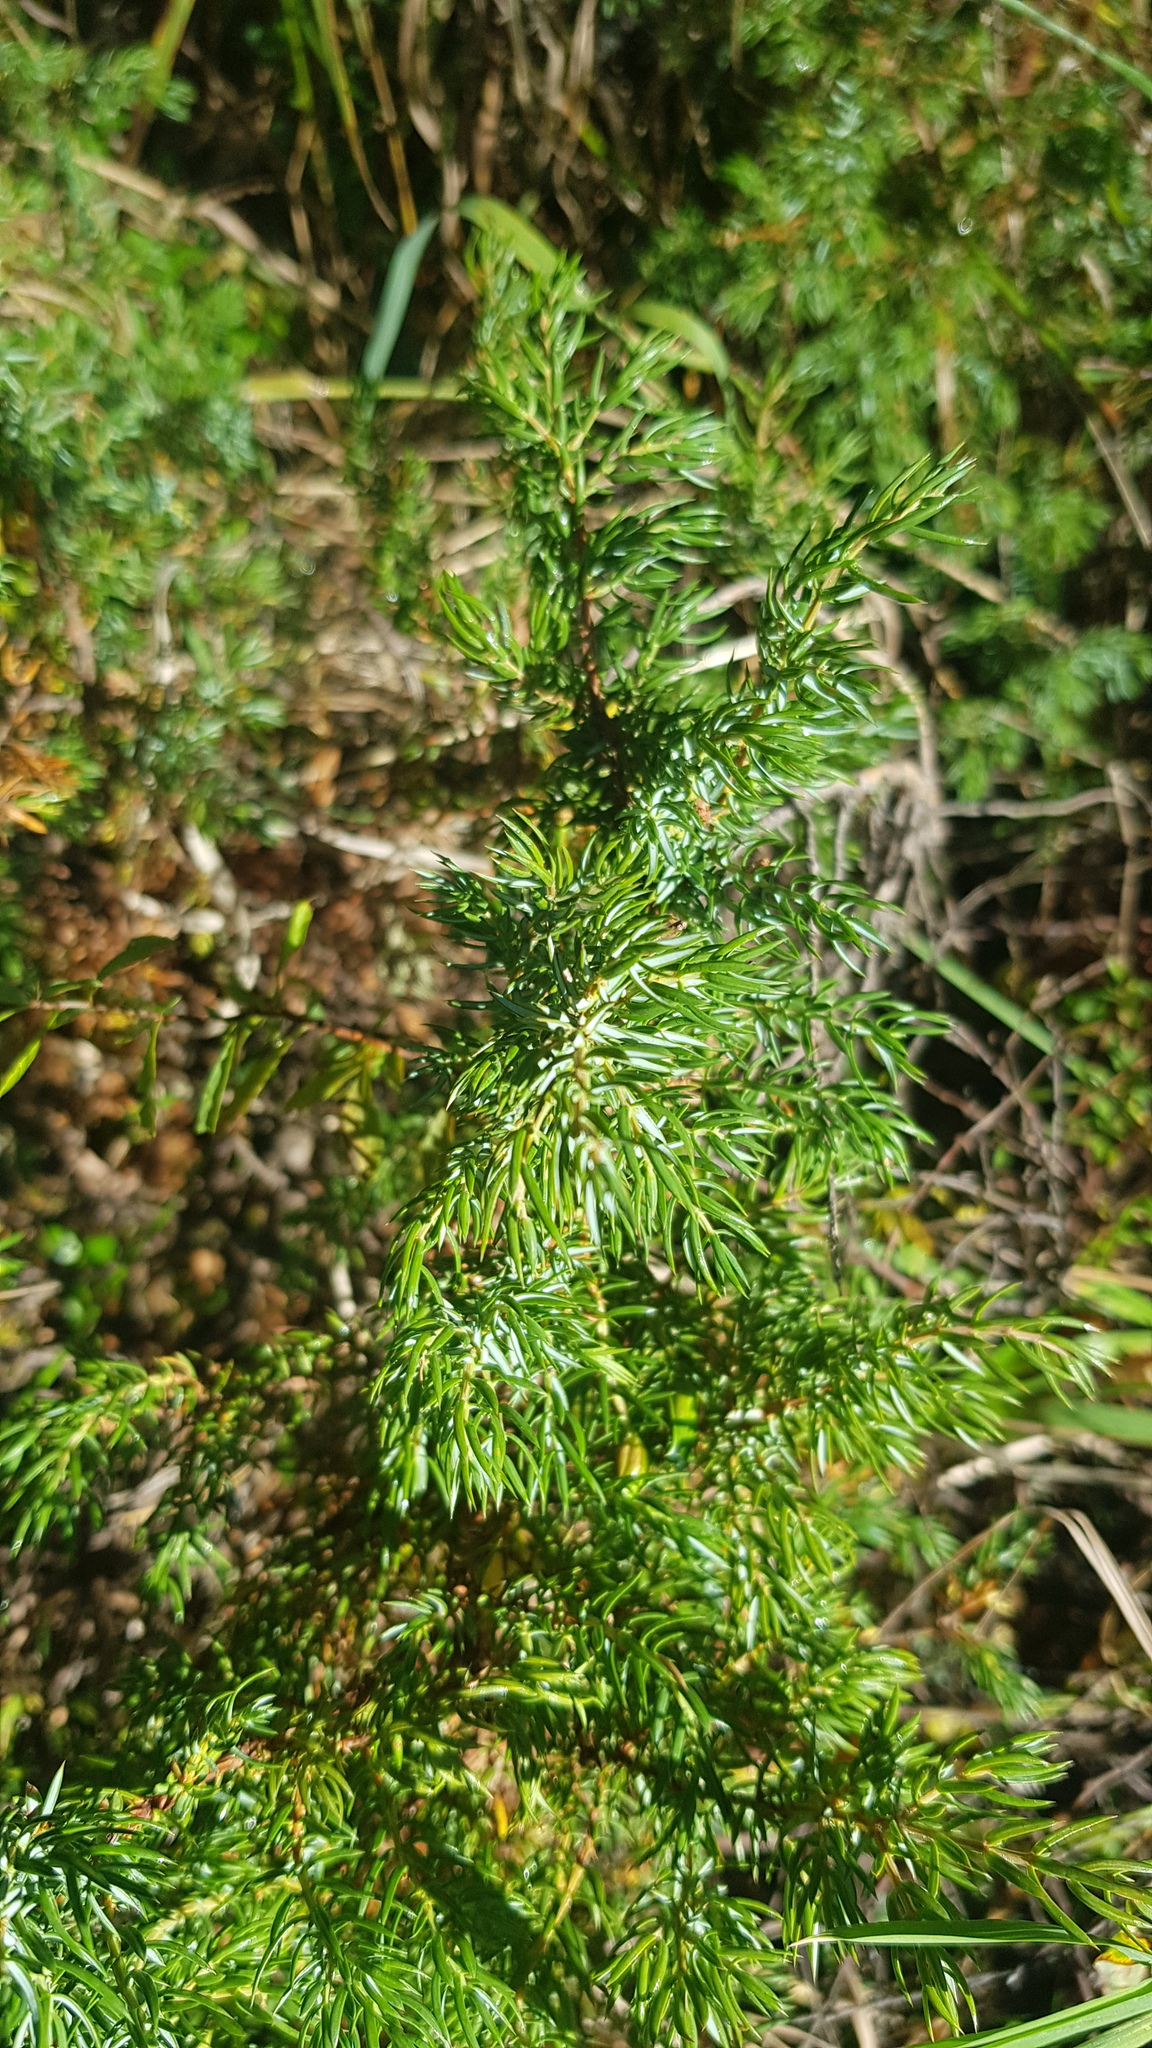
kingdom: Plantae
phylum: Tracheophyta
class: Pinopsida
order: Pinales
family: Cupressaceae
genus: Juniperus
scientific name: Juniperus communis
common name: Common juniper
